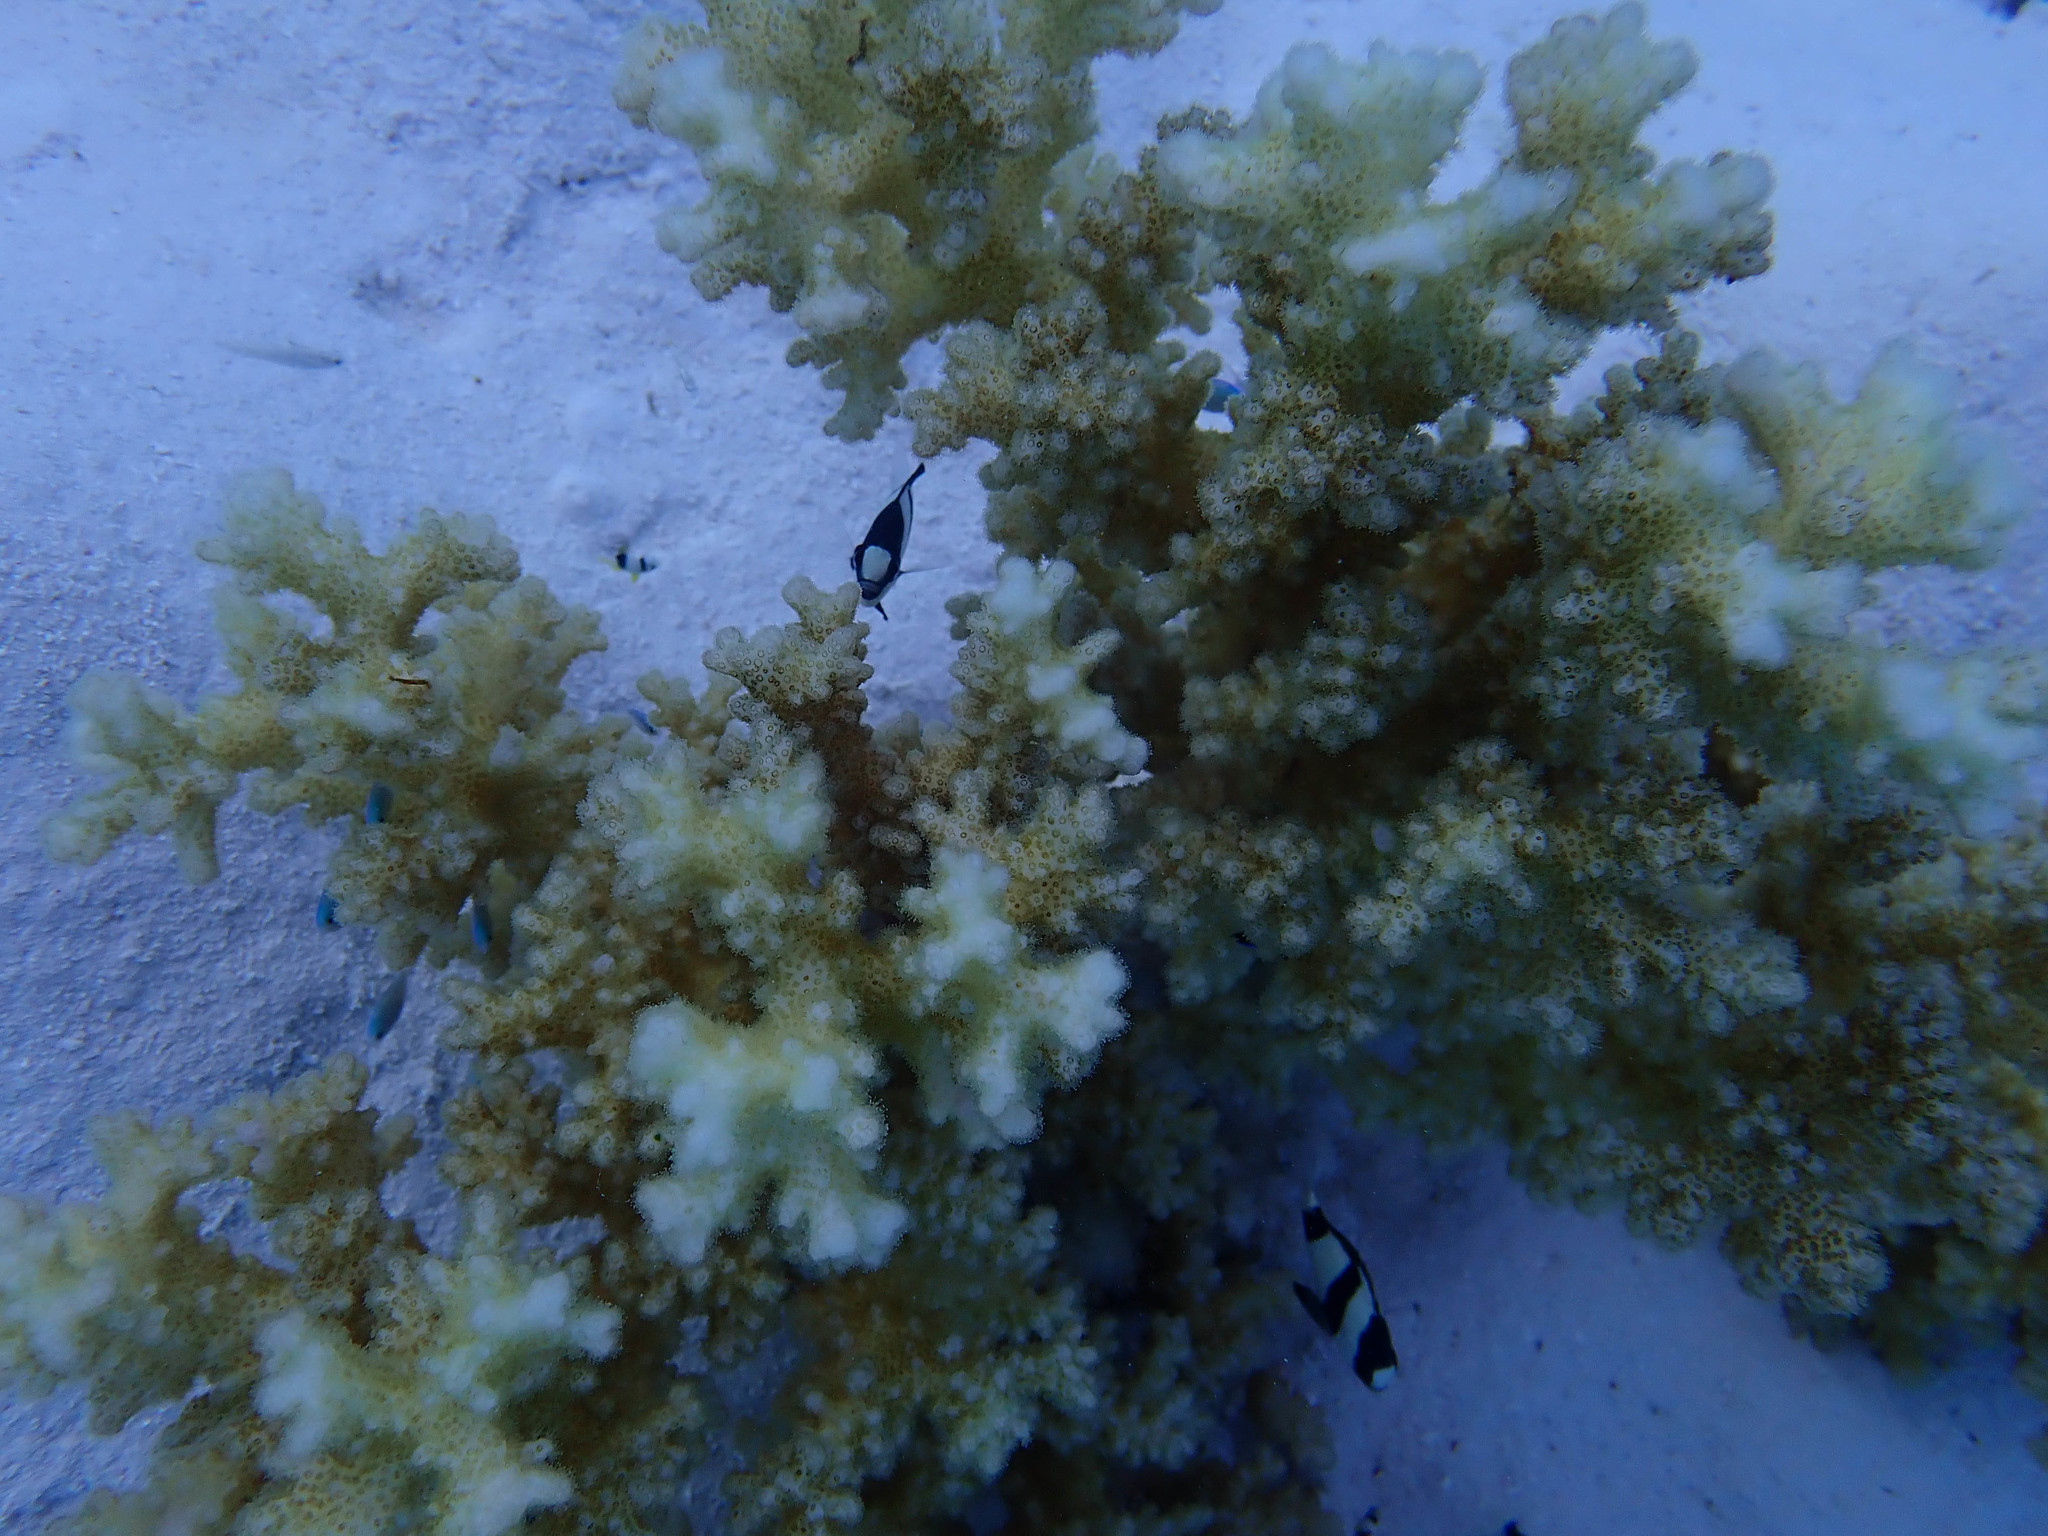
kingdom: Animalia
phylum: Cnidaria
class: Anthozoa
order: Scleractinia
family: Pocilloporidae
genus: Pocillopora
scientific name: Pocillopora damicornis
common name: Cauliflower coral
